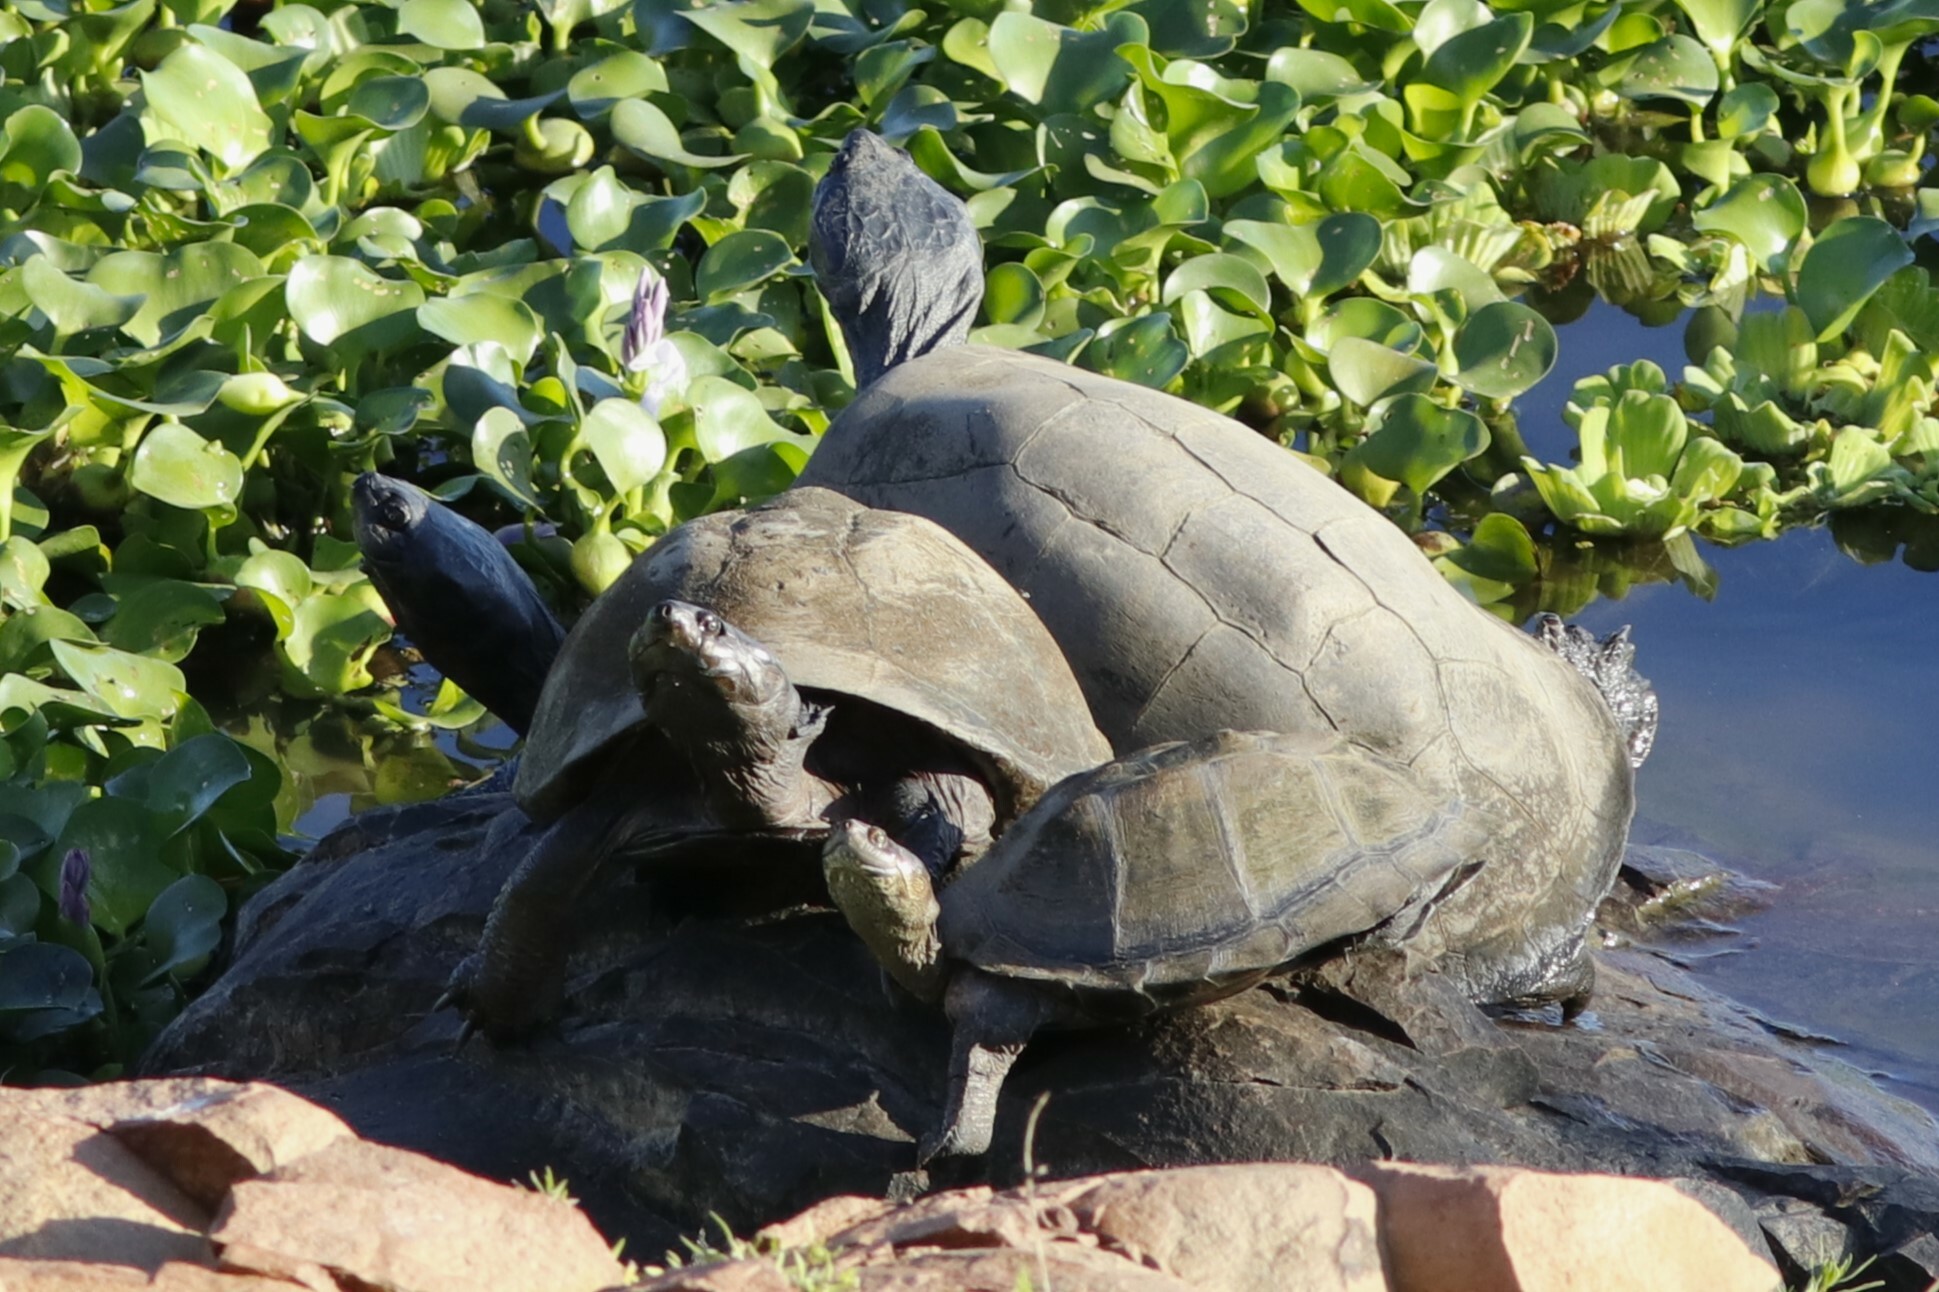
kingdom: Animalia
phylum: Chordata
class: Testudines
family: Pelomedusidae
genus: Pelusios
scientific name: Pelusios sinuatus
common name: Serrated hinged terrapin
